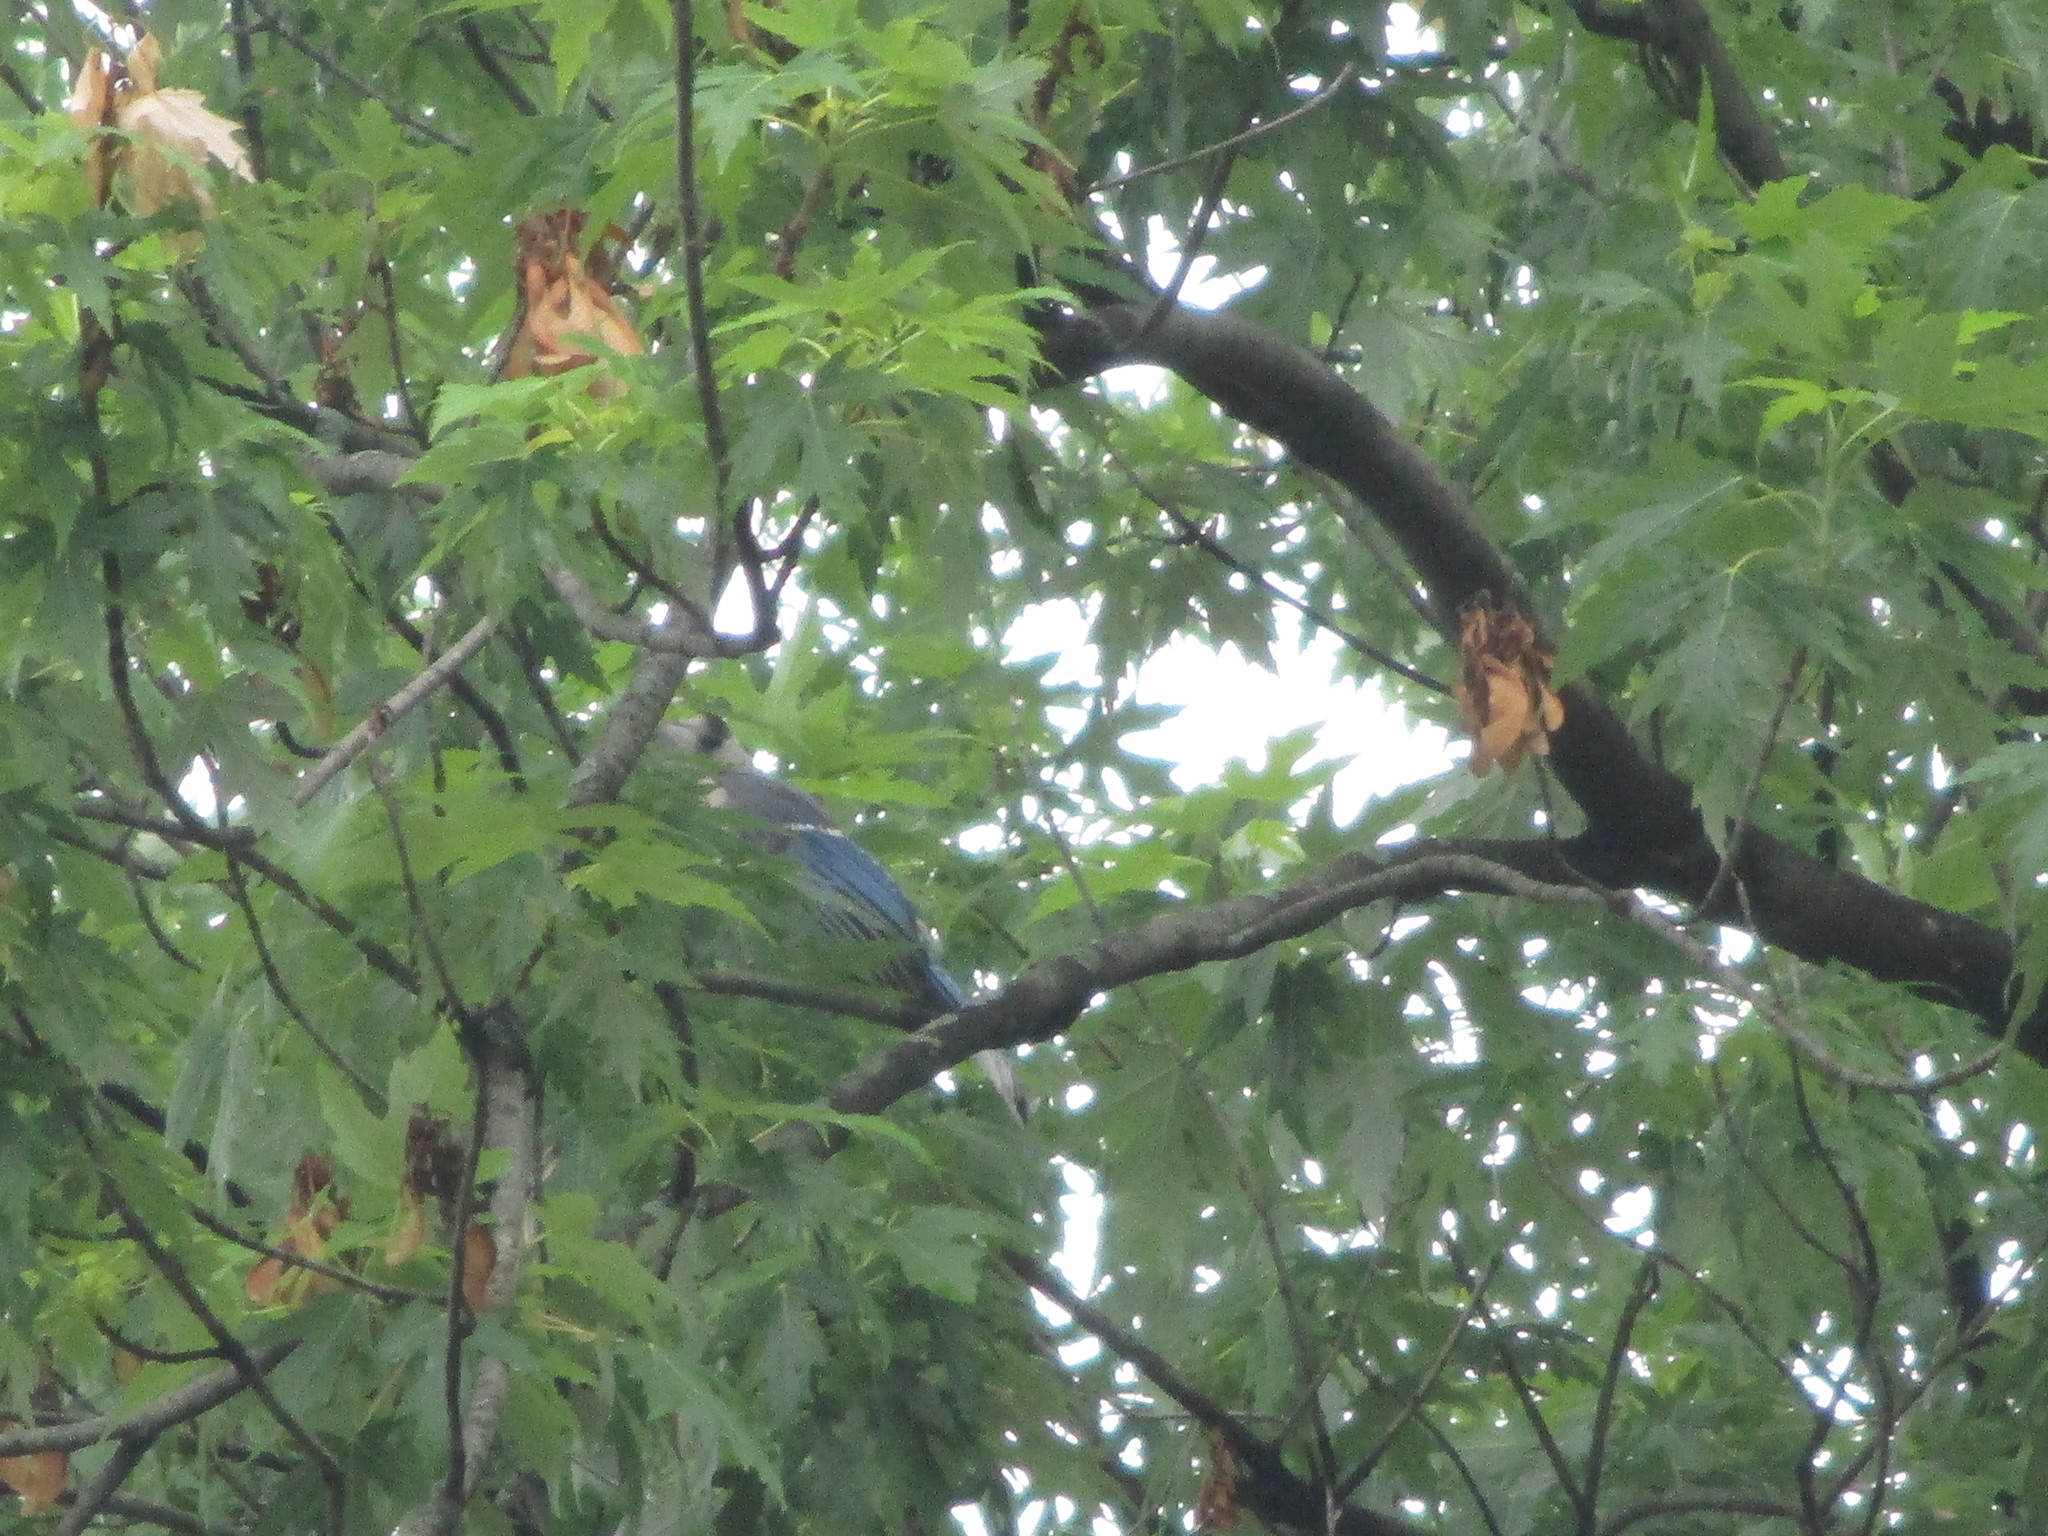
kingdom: Animalia
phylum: Chordata
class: Aves
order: Passeriformes
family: Corvidae
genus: Cyanocitta
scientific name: Cyanocitta cristata
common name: Blue jay
